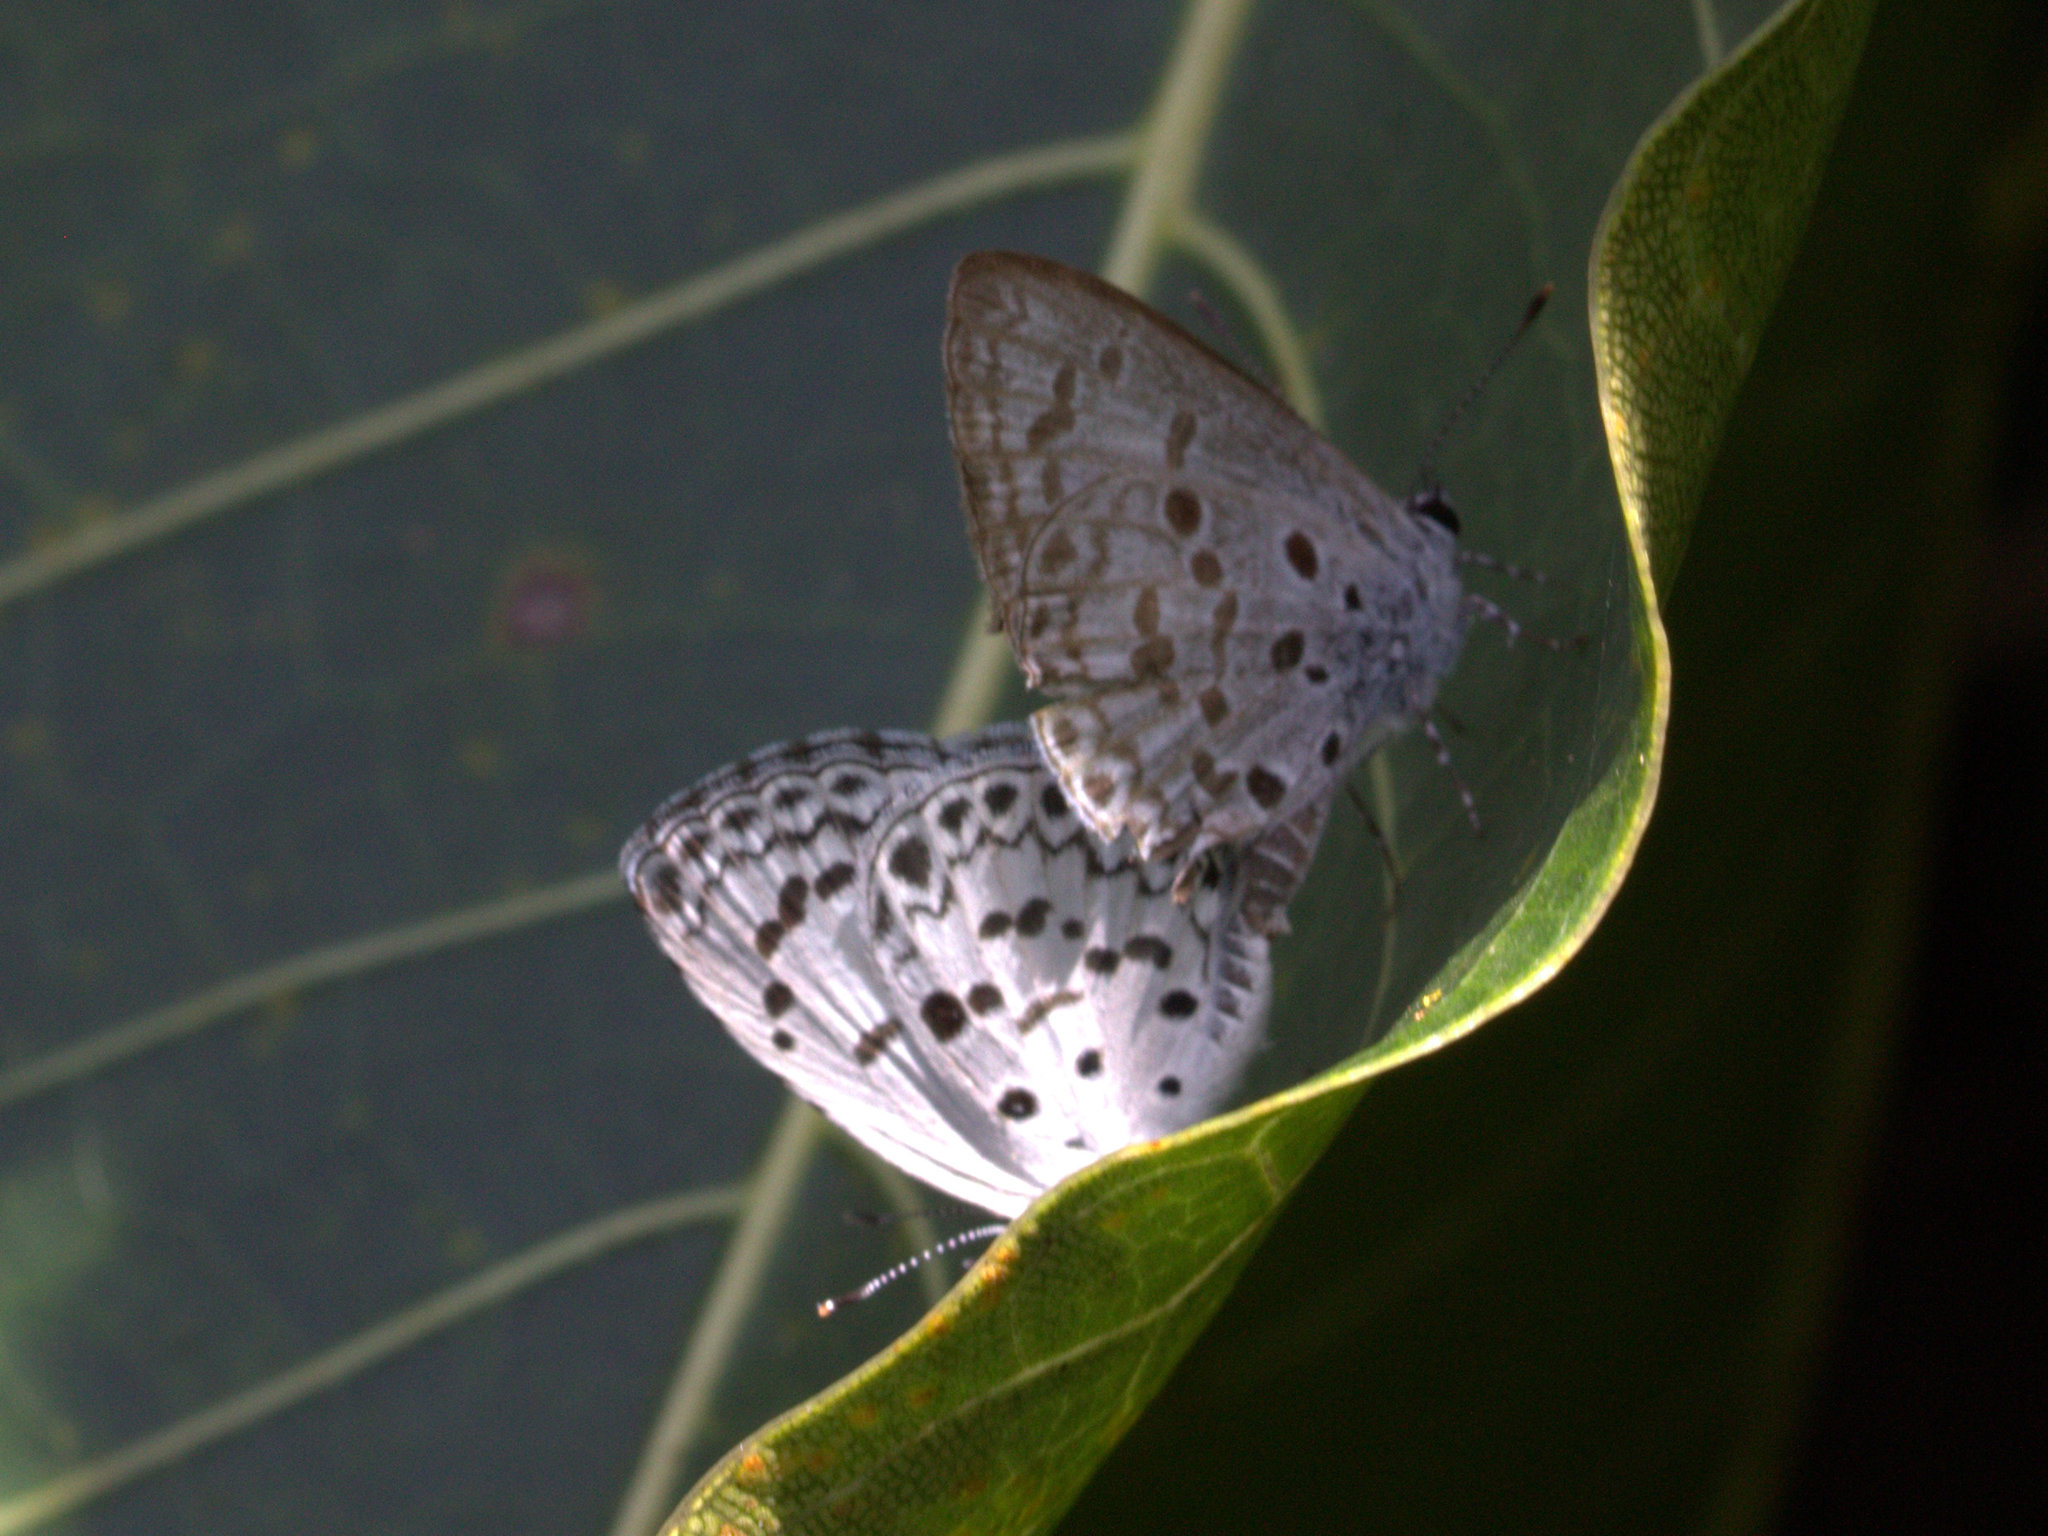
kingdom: Animalia
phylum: Arthropoda
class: Insecta
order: Lepidoptera
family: Lycaenidae
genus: Acytolepis
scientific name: Acytolepis puspa
